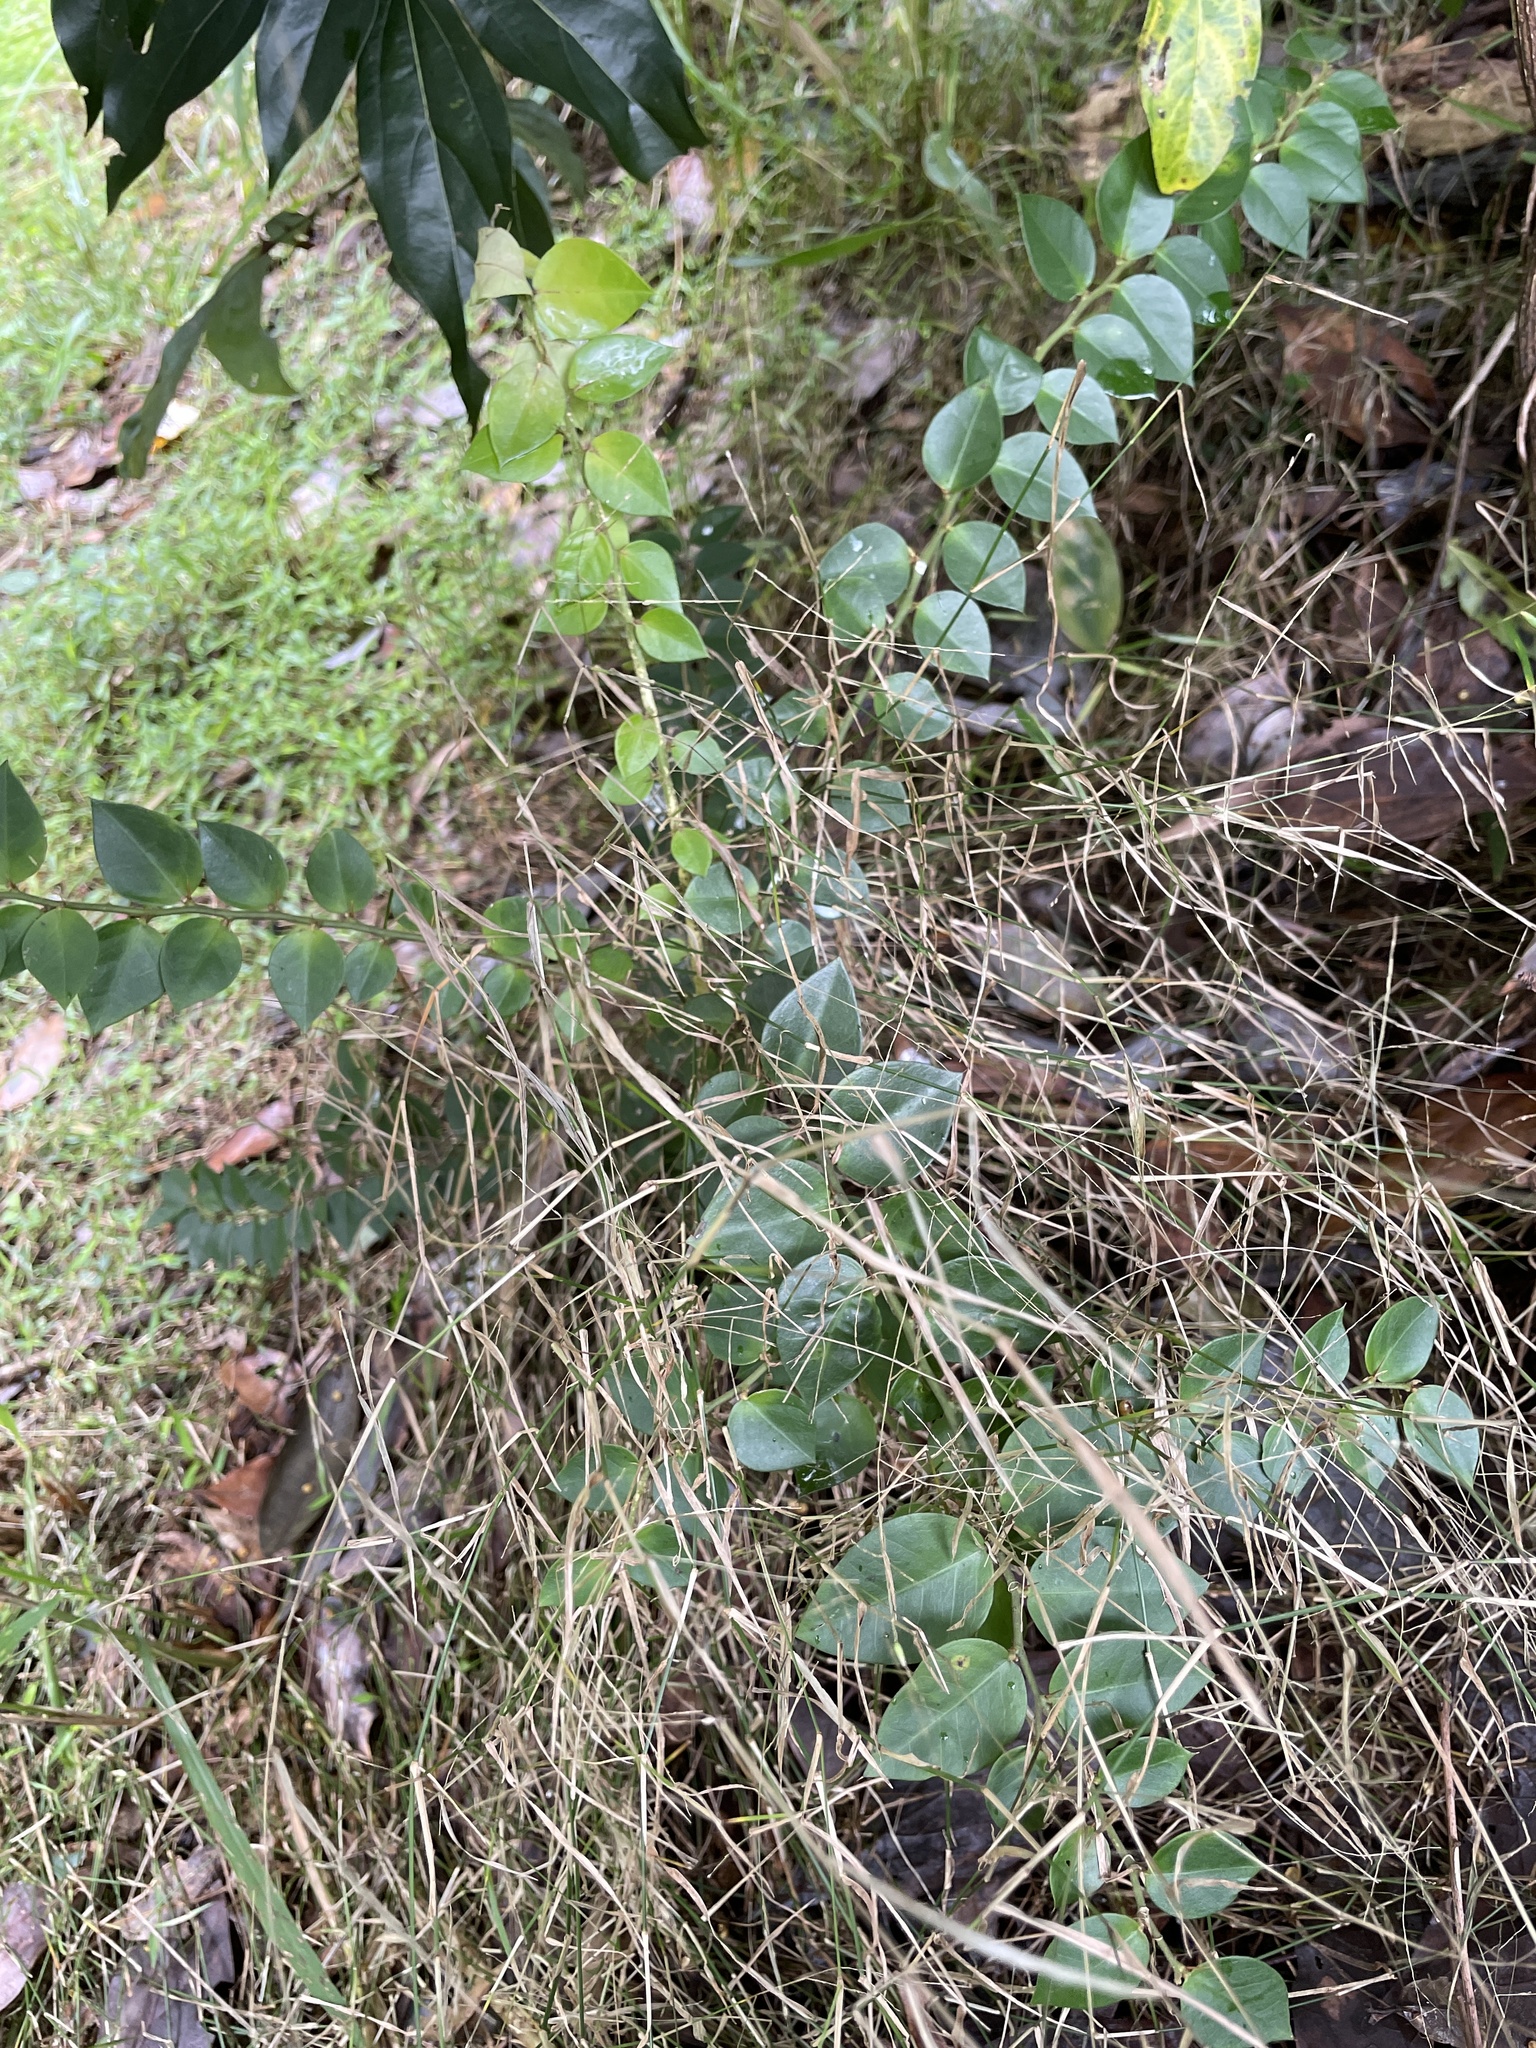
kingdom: Plantae
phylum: Tracheophyta
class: Magnoliopsida
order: Brassicales
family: Capparaceae
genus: Capparis
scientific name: Capparis arborea
